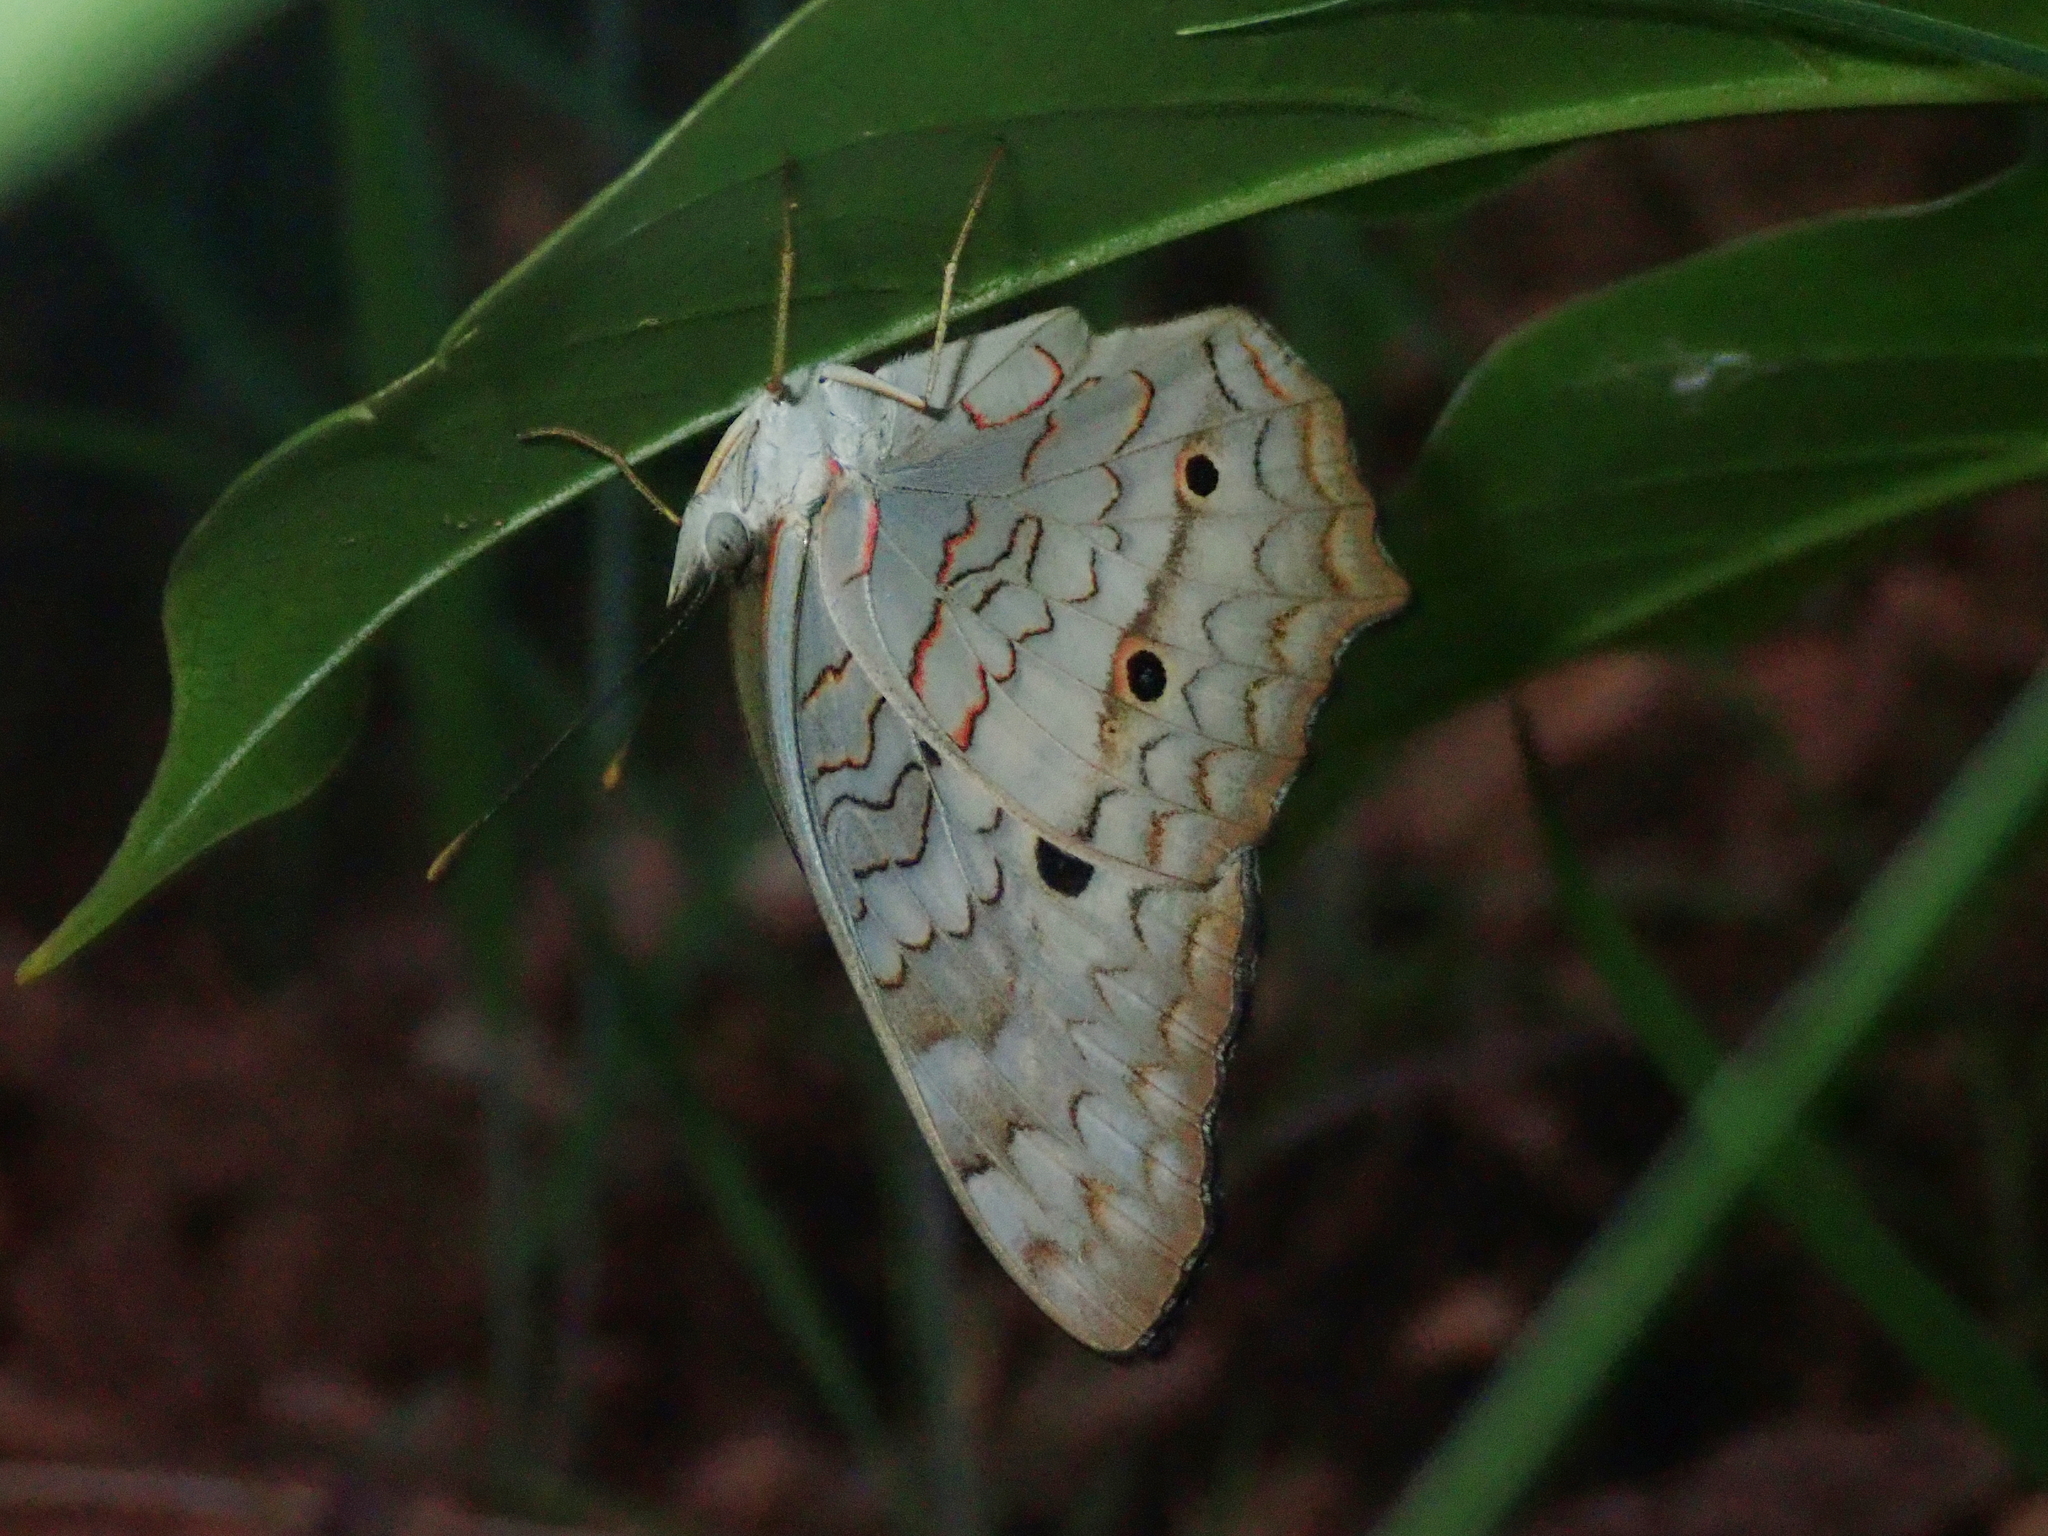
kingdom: Animalia
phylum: Arthropoda
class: Insecta
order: Lepidoptera
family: Nymphalidae
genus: Anartia
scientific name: Anartia jatrophae
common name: White peacock
